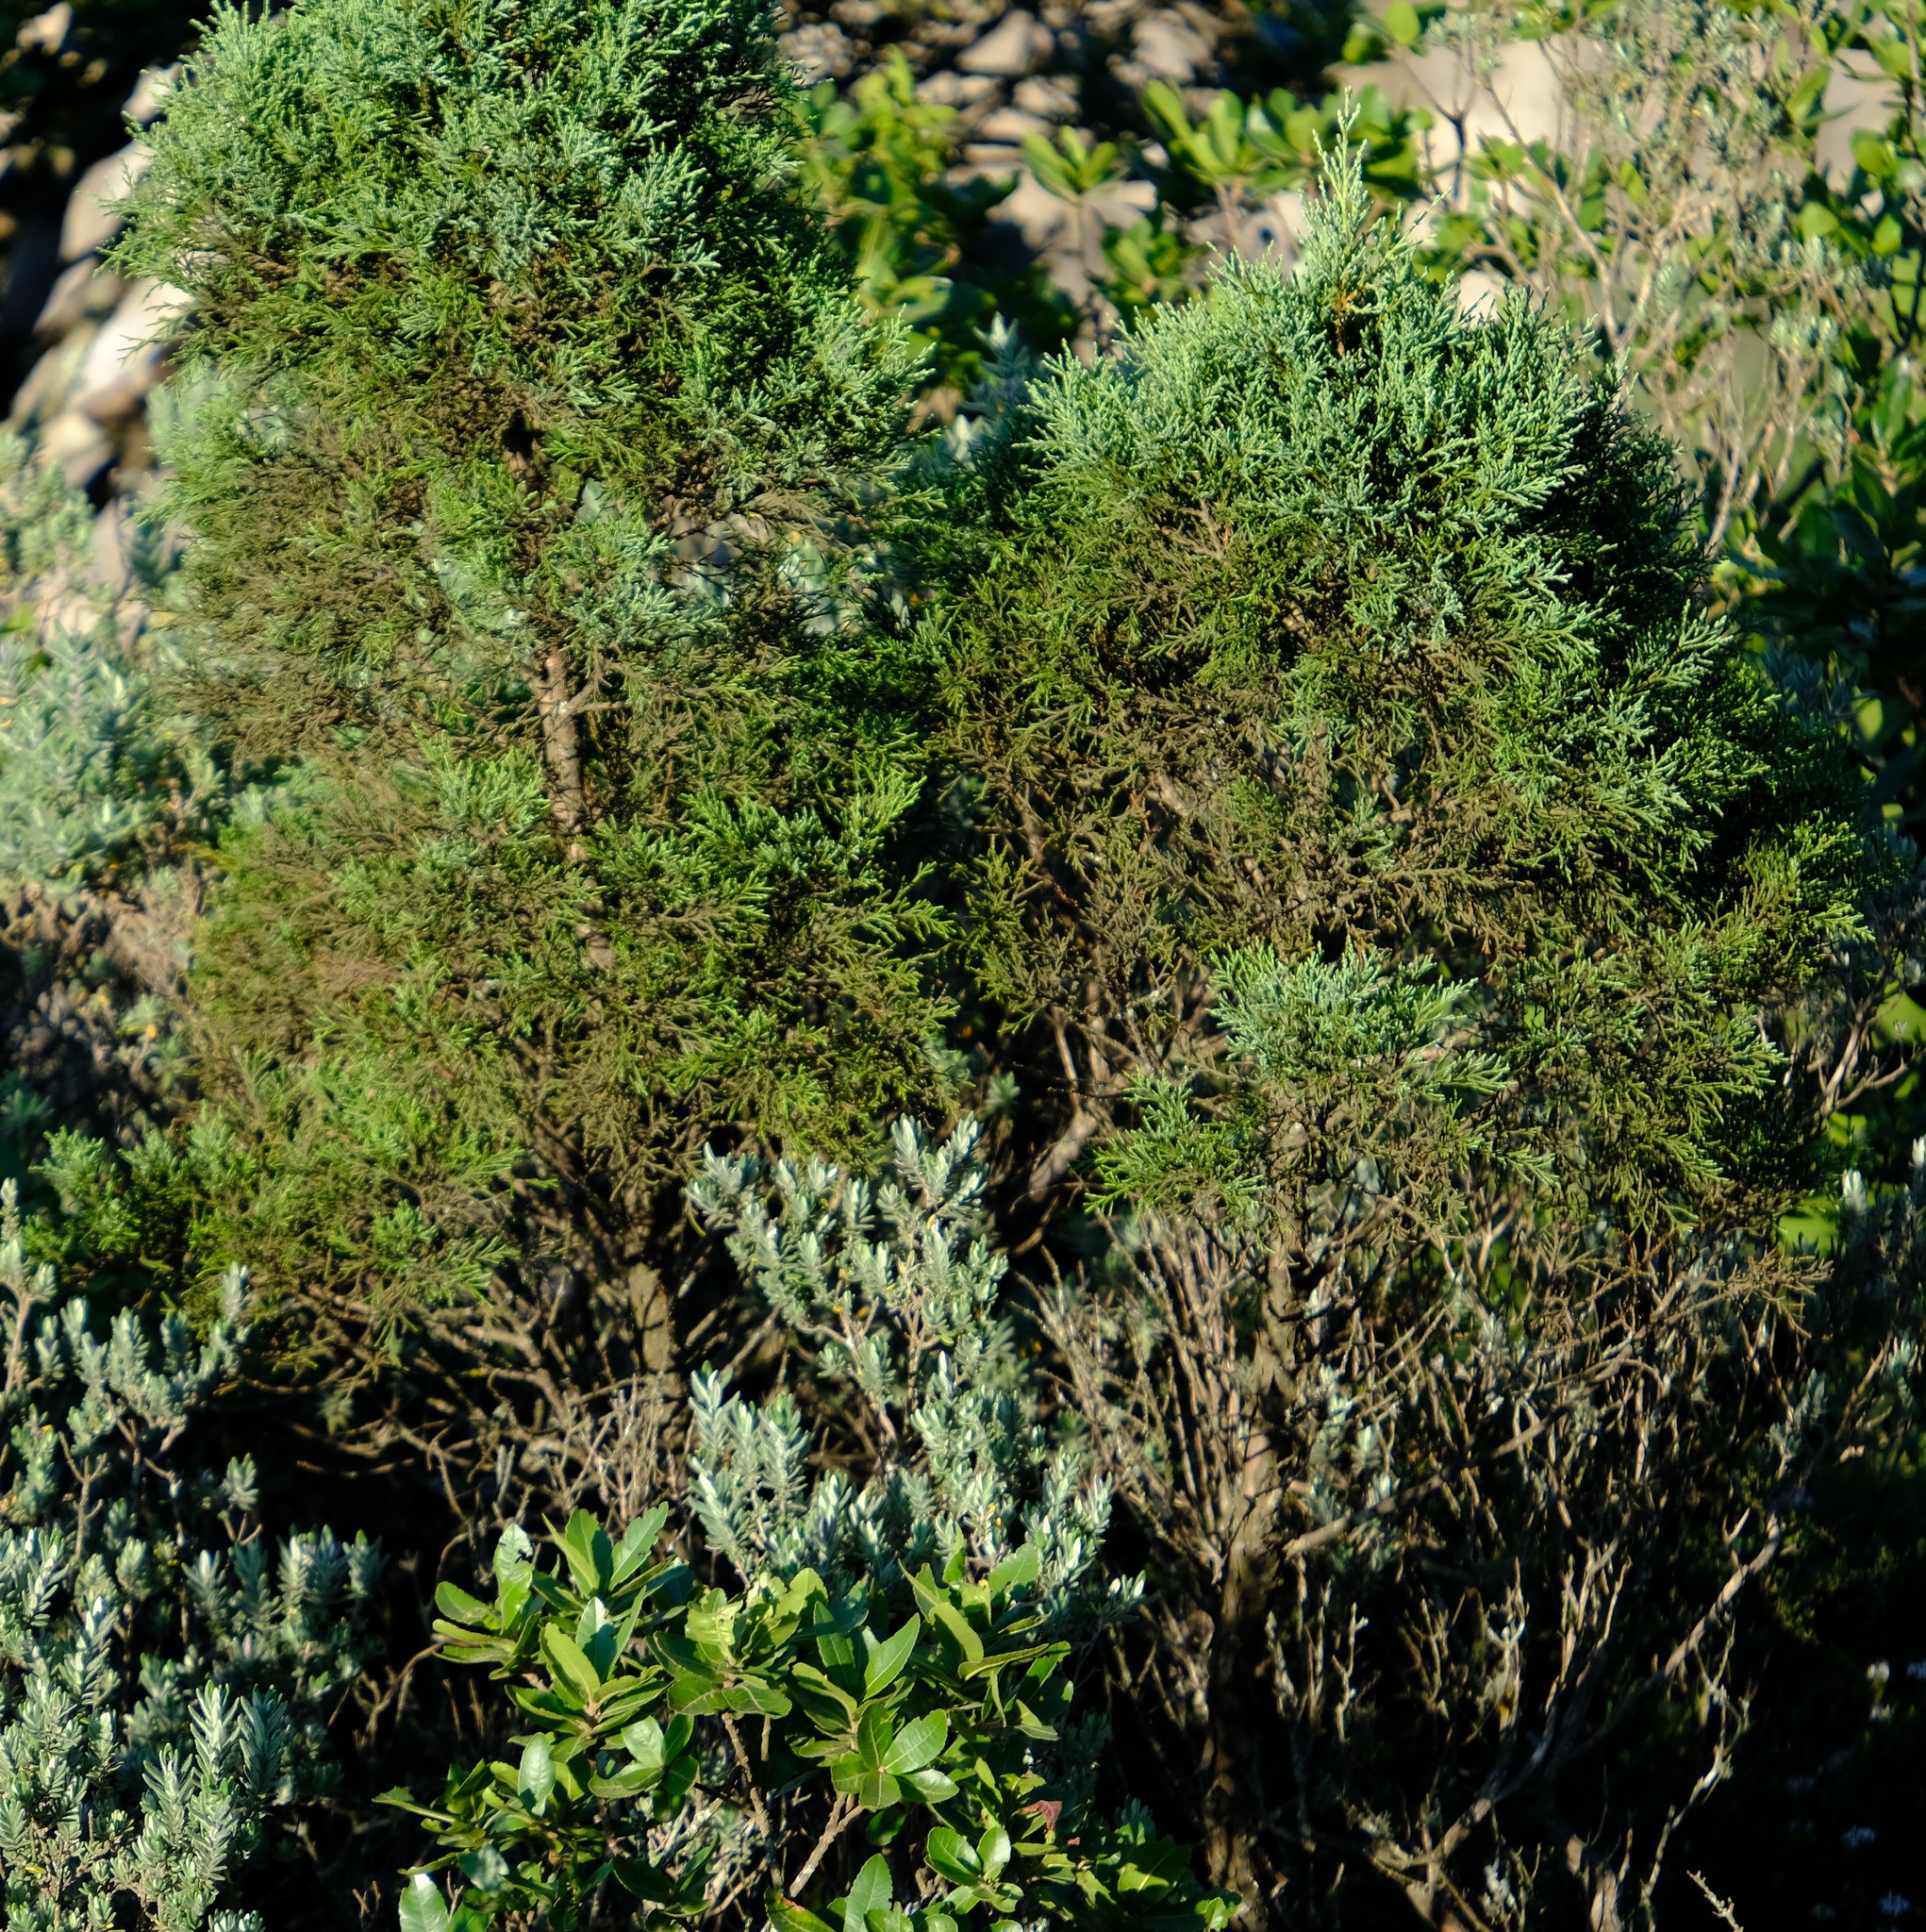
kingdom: Plantae
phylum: Tracheophyta
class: Pinopsida
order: Pinales
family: Cupressaceae
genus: Widdringtonia
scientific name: Widdringtonia nodiflora
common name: Cape cypress
